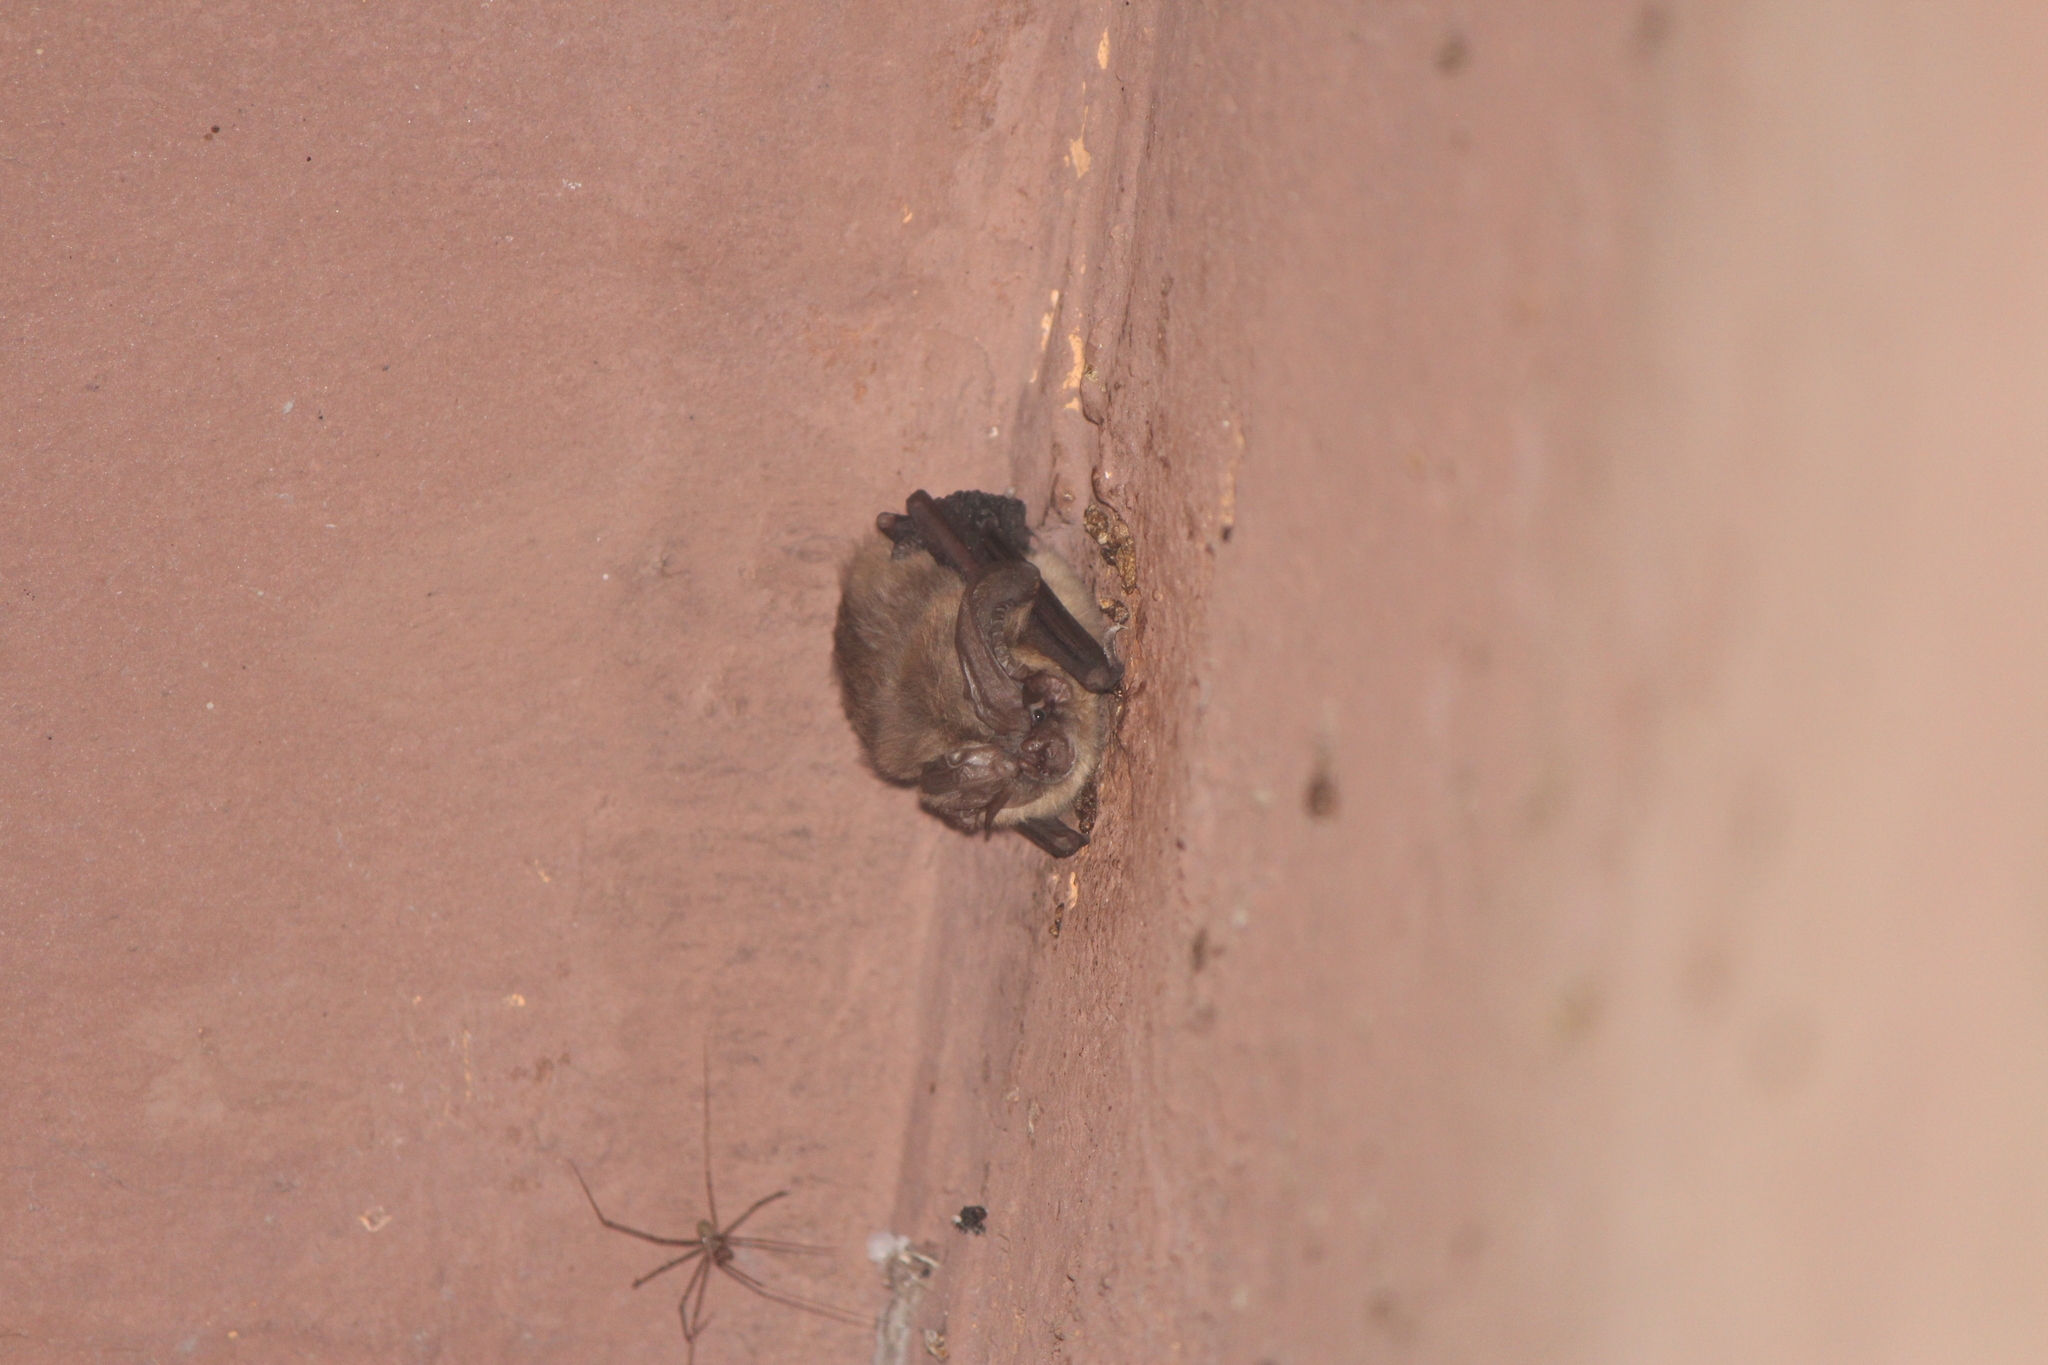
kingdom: Animalia
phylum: Chordata
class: Mammalia
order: Chiroptera
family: Vespertilionidae
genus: Corynorhinus
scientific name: Corynorhinus townsendii
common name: Townsend's big-eared bat
